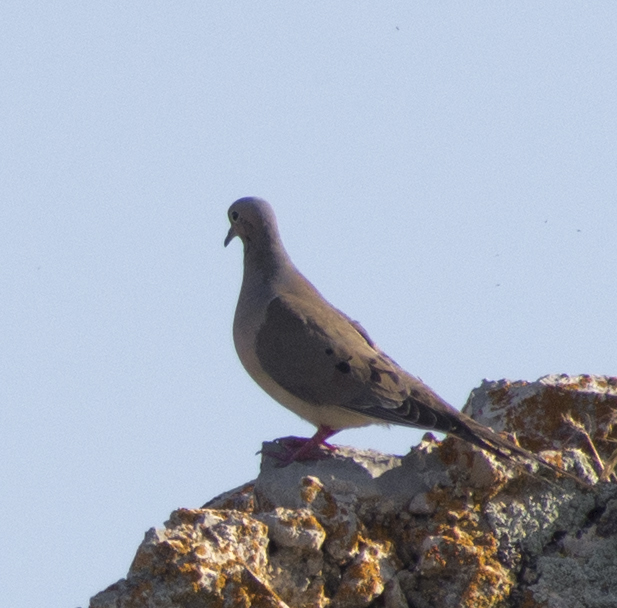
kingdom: Animalia
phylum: Chordata
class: Aves
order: Columbiformes
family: Columbidae
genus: Zenaida
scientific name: Zenaida macroura
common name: Mourning dove
